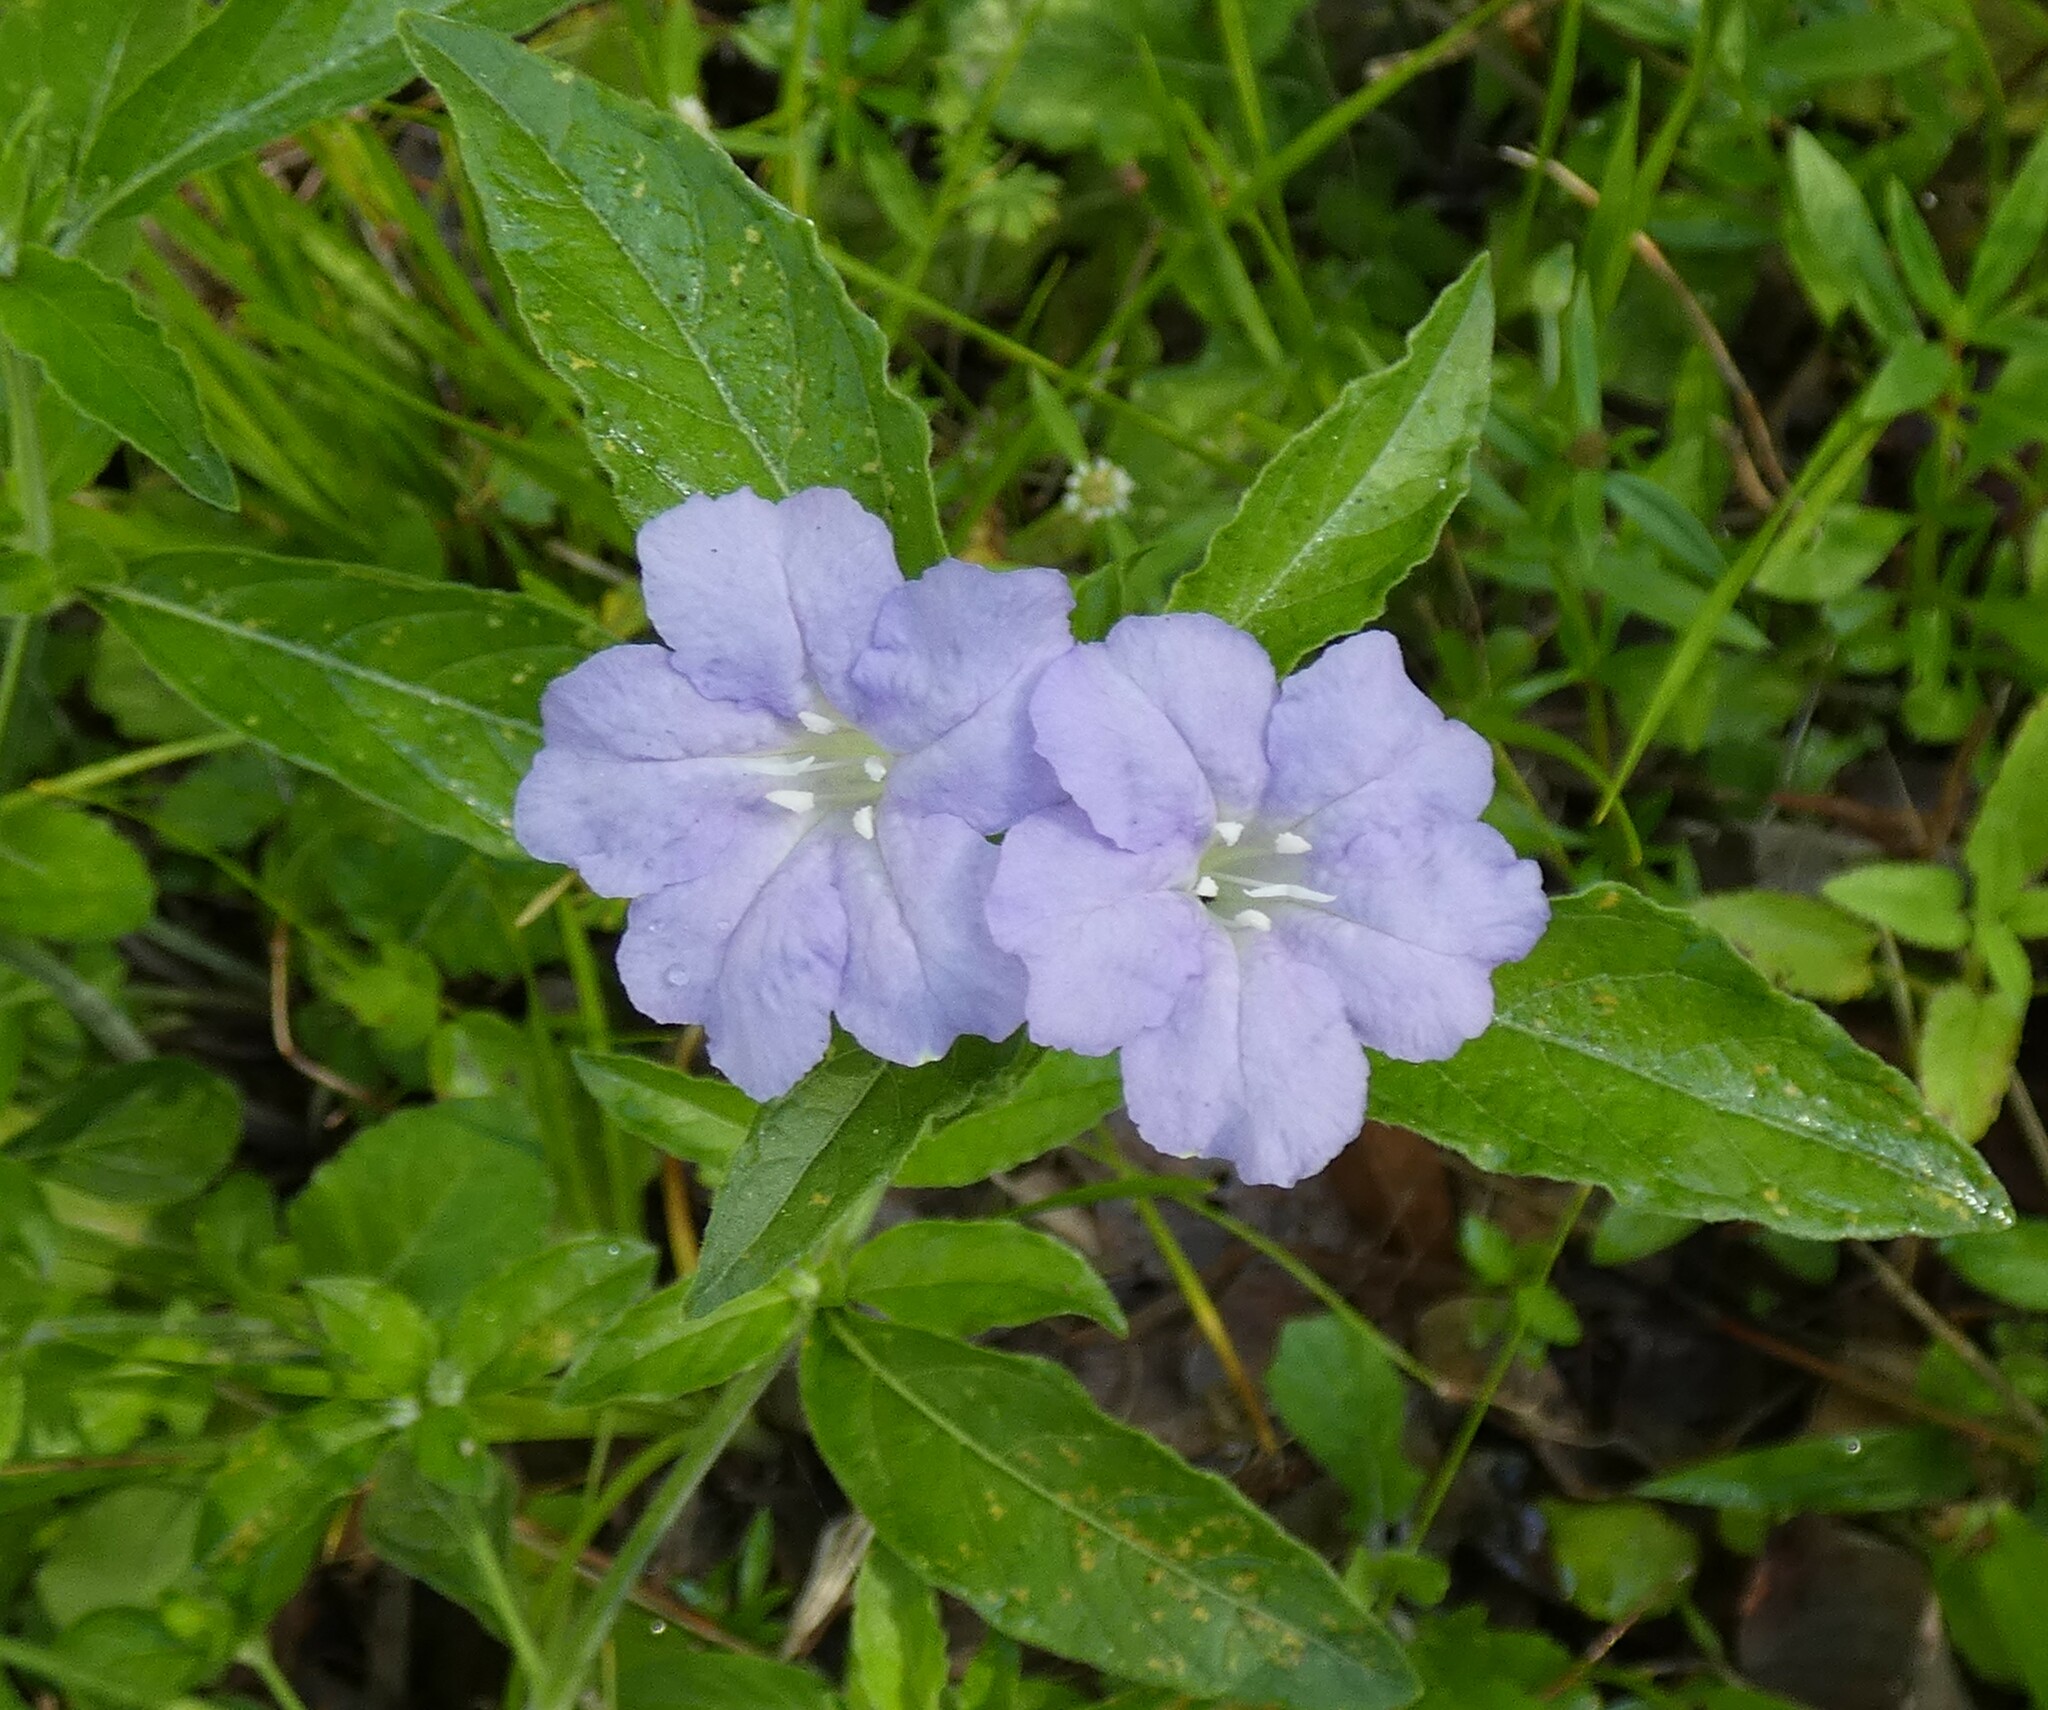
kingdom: Plantae
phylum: Tracheophyta
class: Magnoliopsida
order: Lamiales
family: Acanthaceae
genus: Ruellia
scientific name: Ruellia caroliniensis
